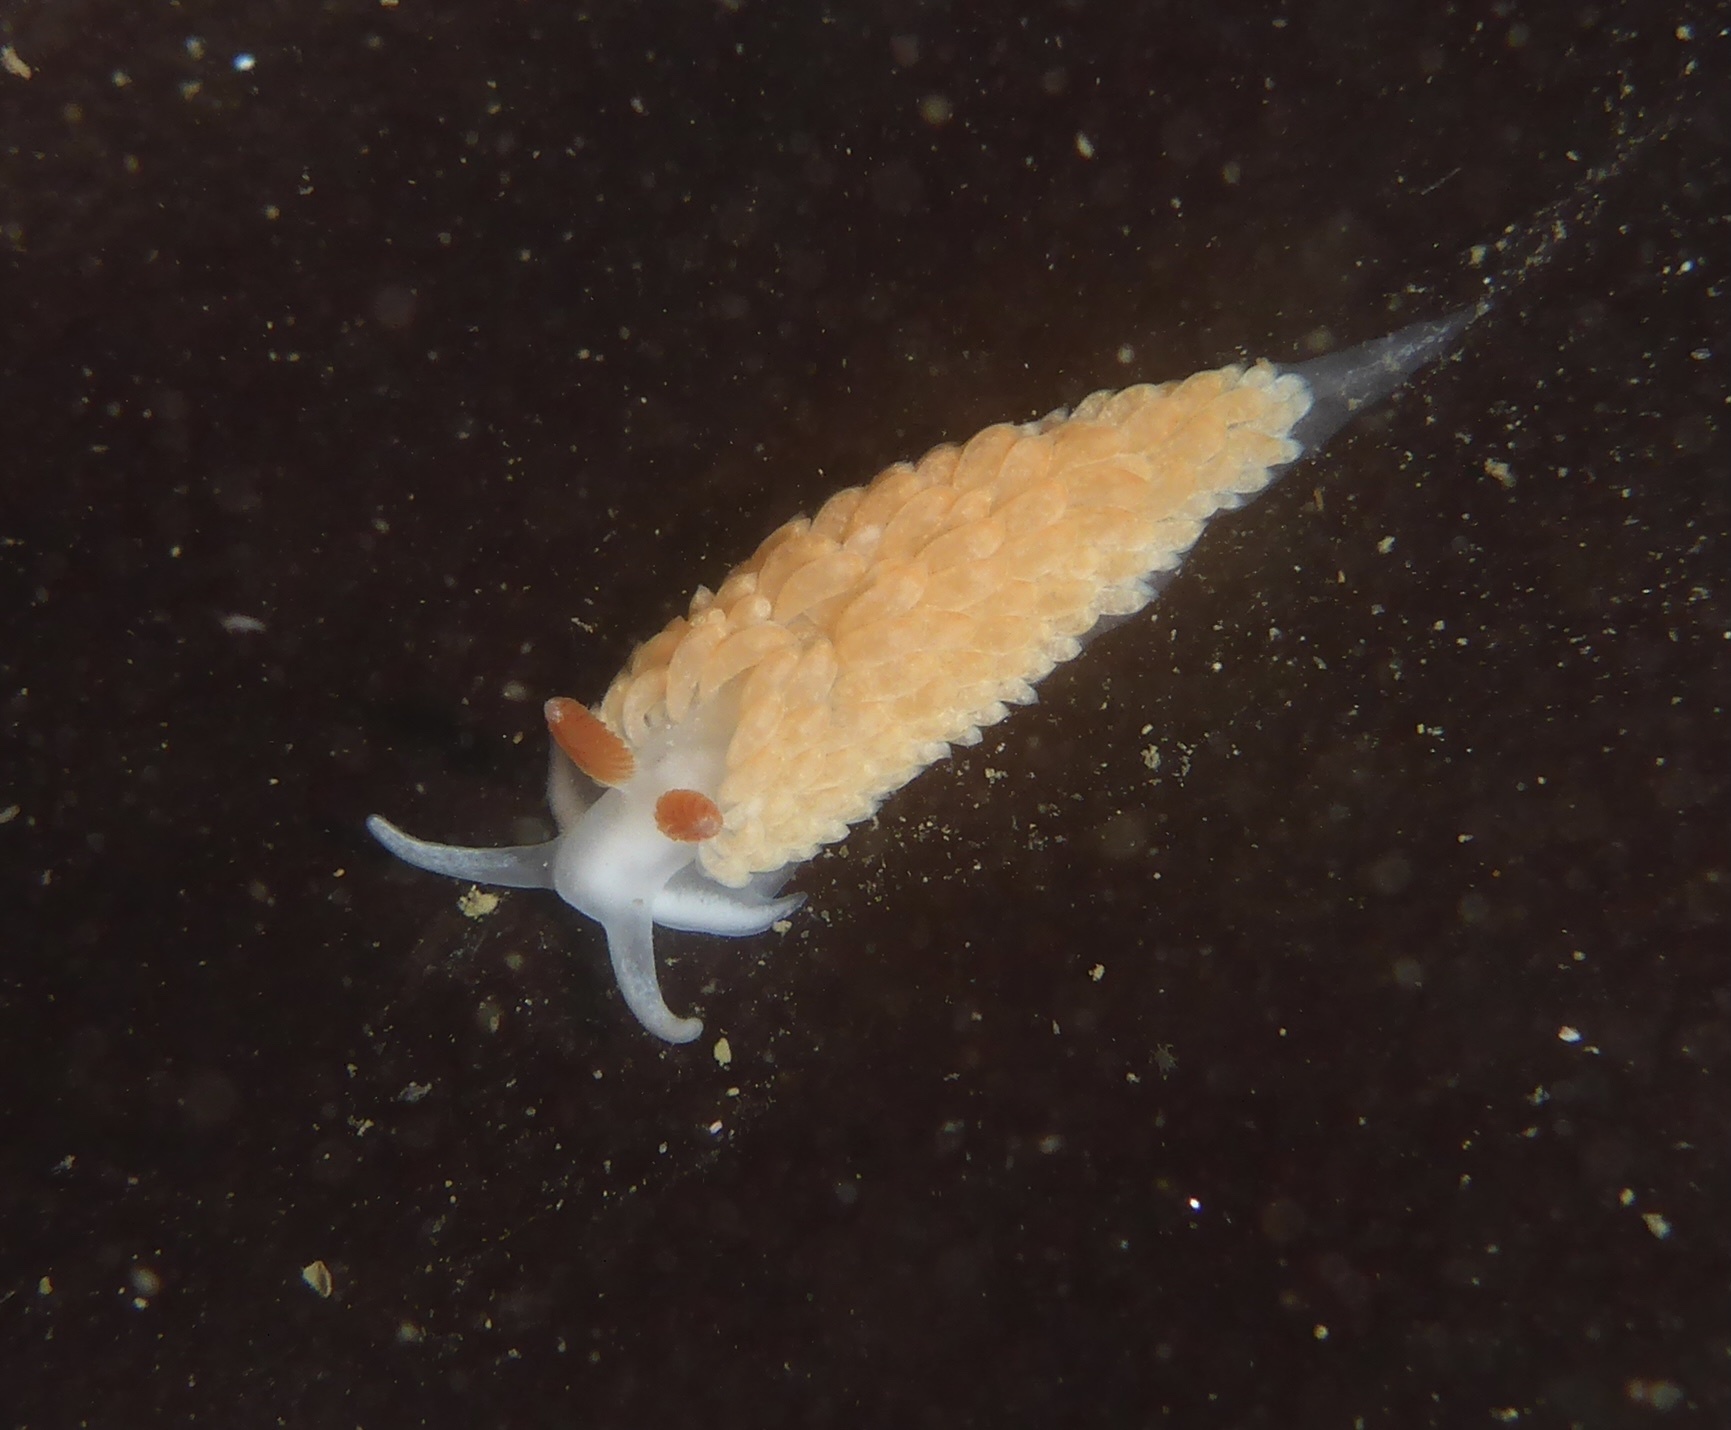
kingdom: Animalia
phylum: Mollusca
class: Gastropoda
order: Nudibranchia
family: Aeolidiidae
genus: Anteaeolidiella
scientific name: Anteaeolidiella oliviae
